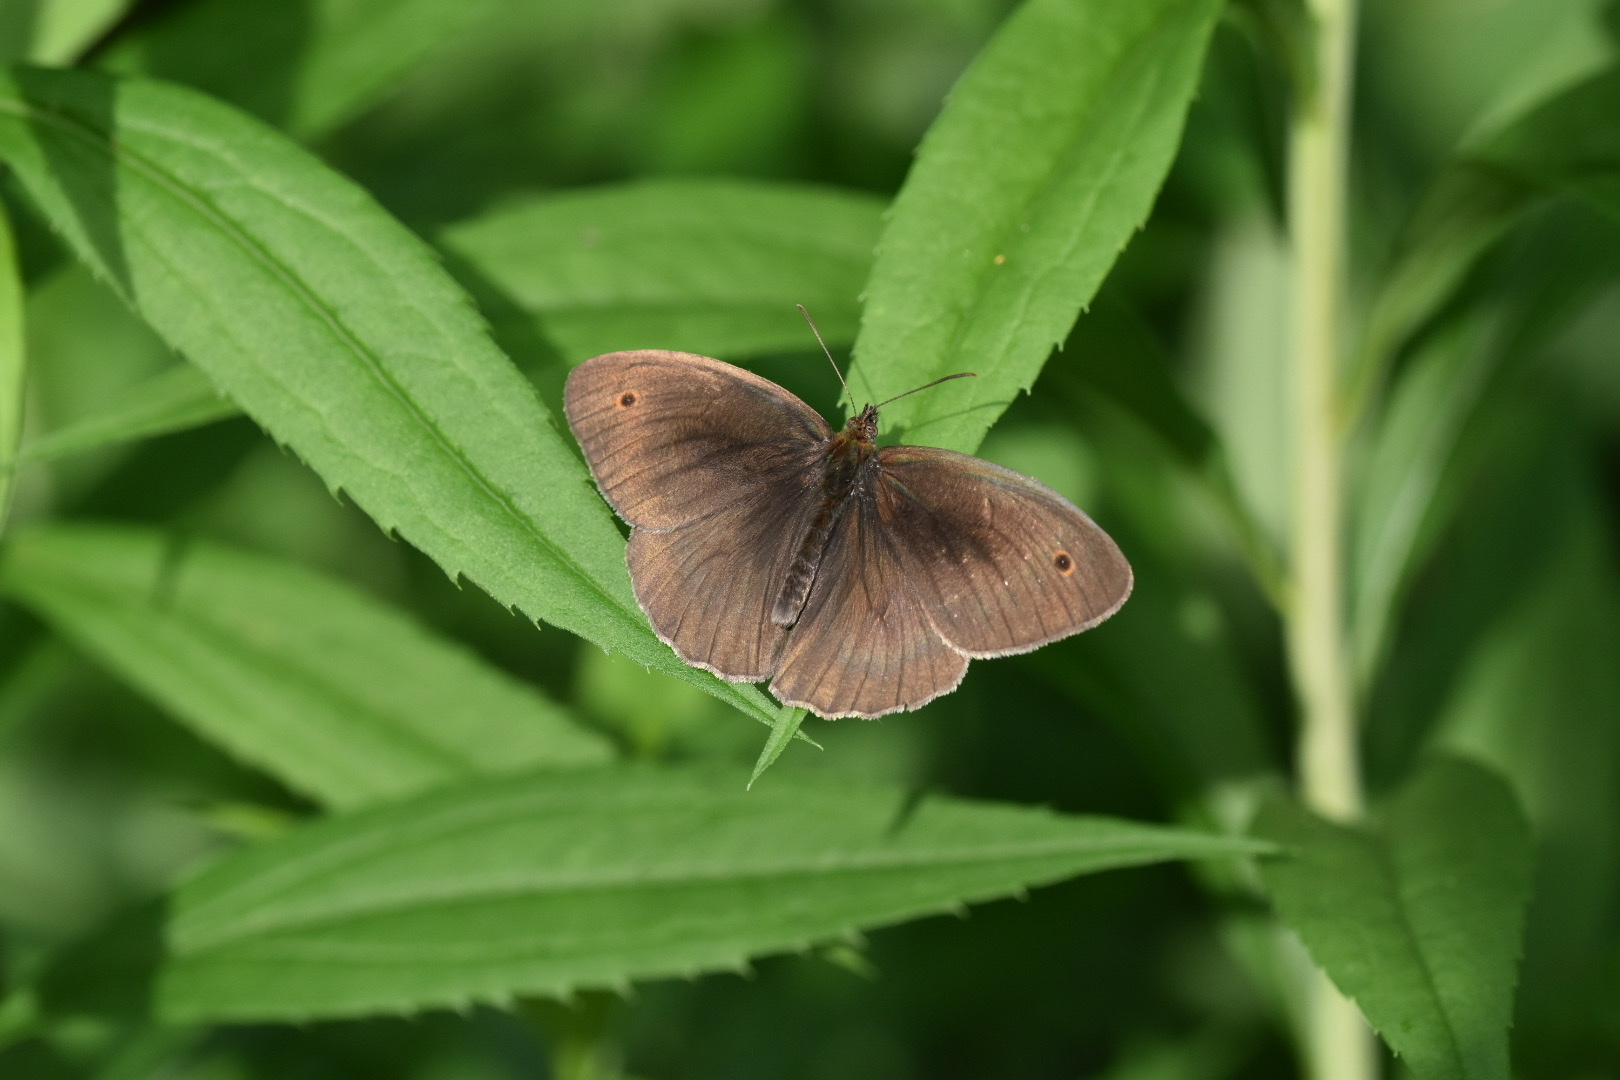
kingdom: Animalia
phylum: Arthropoda
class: Insecta
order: Lepidoptera
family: Nymphalidae
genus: Maniola
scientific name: Maniola jurtina
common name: Meadow brown
